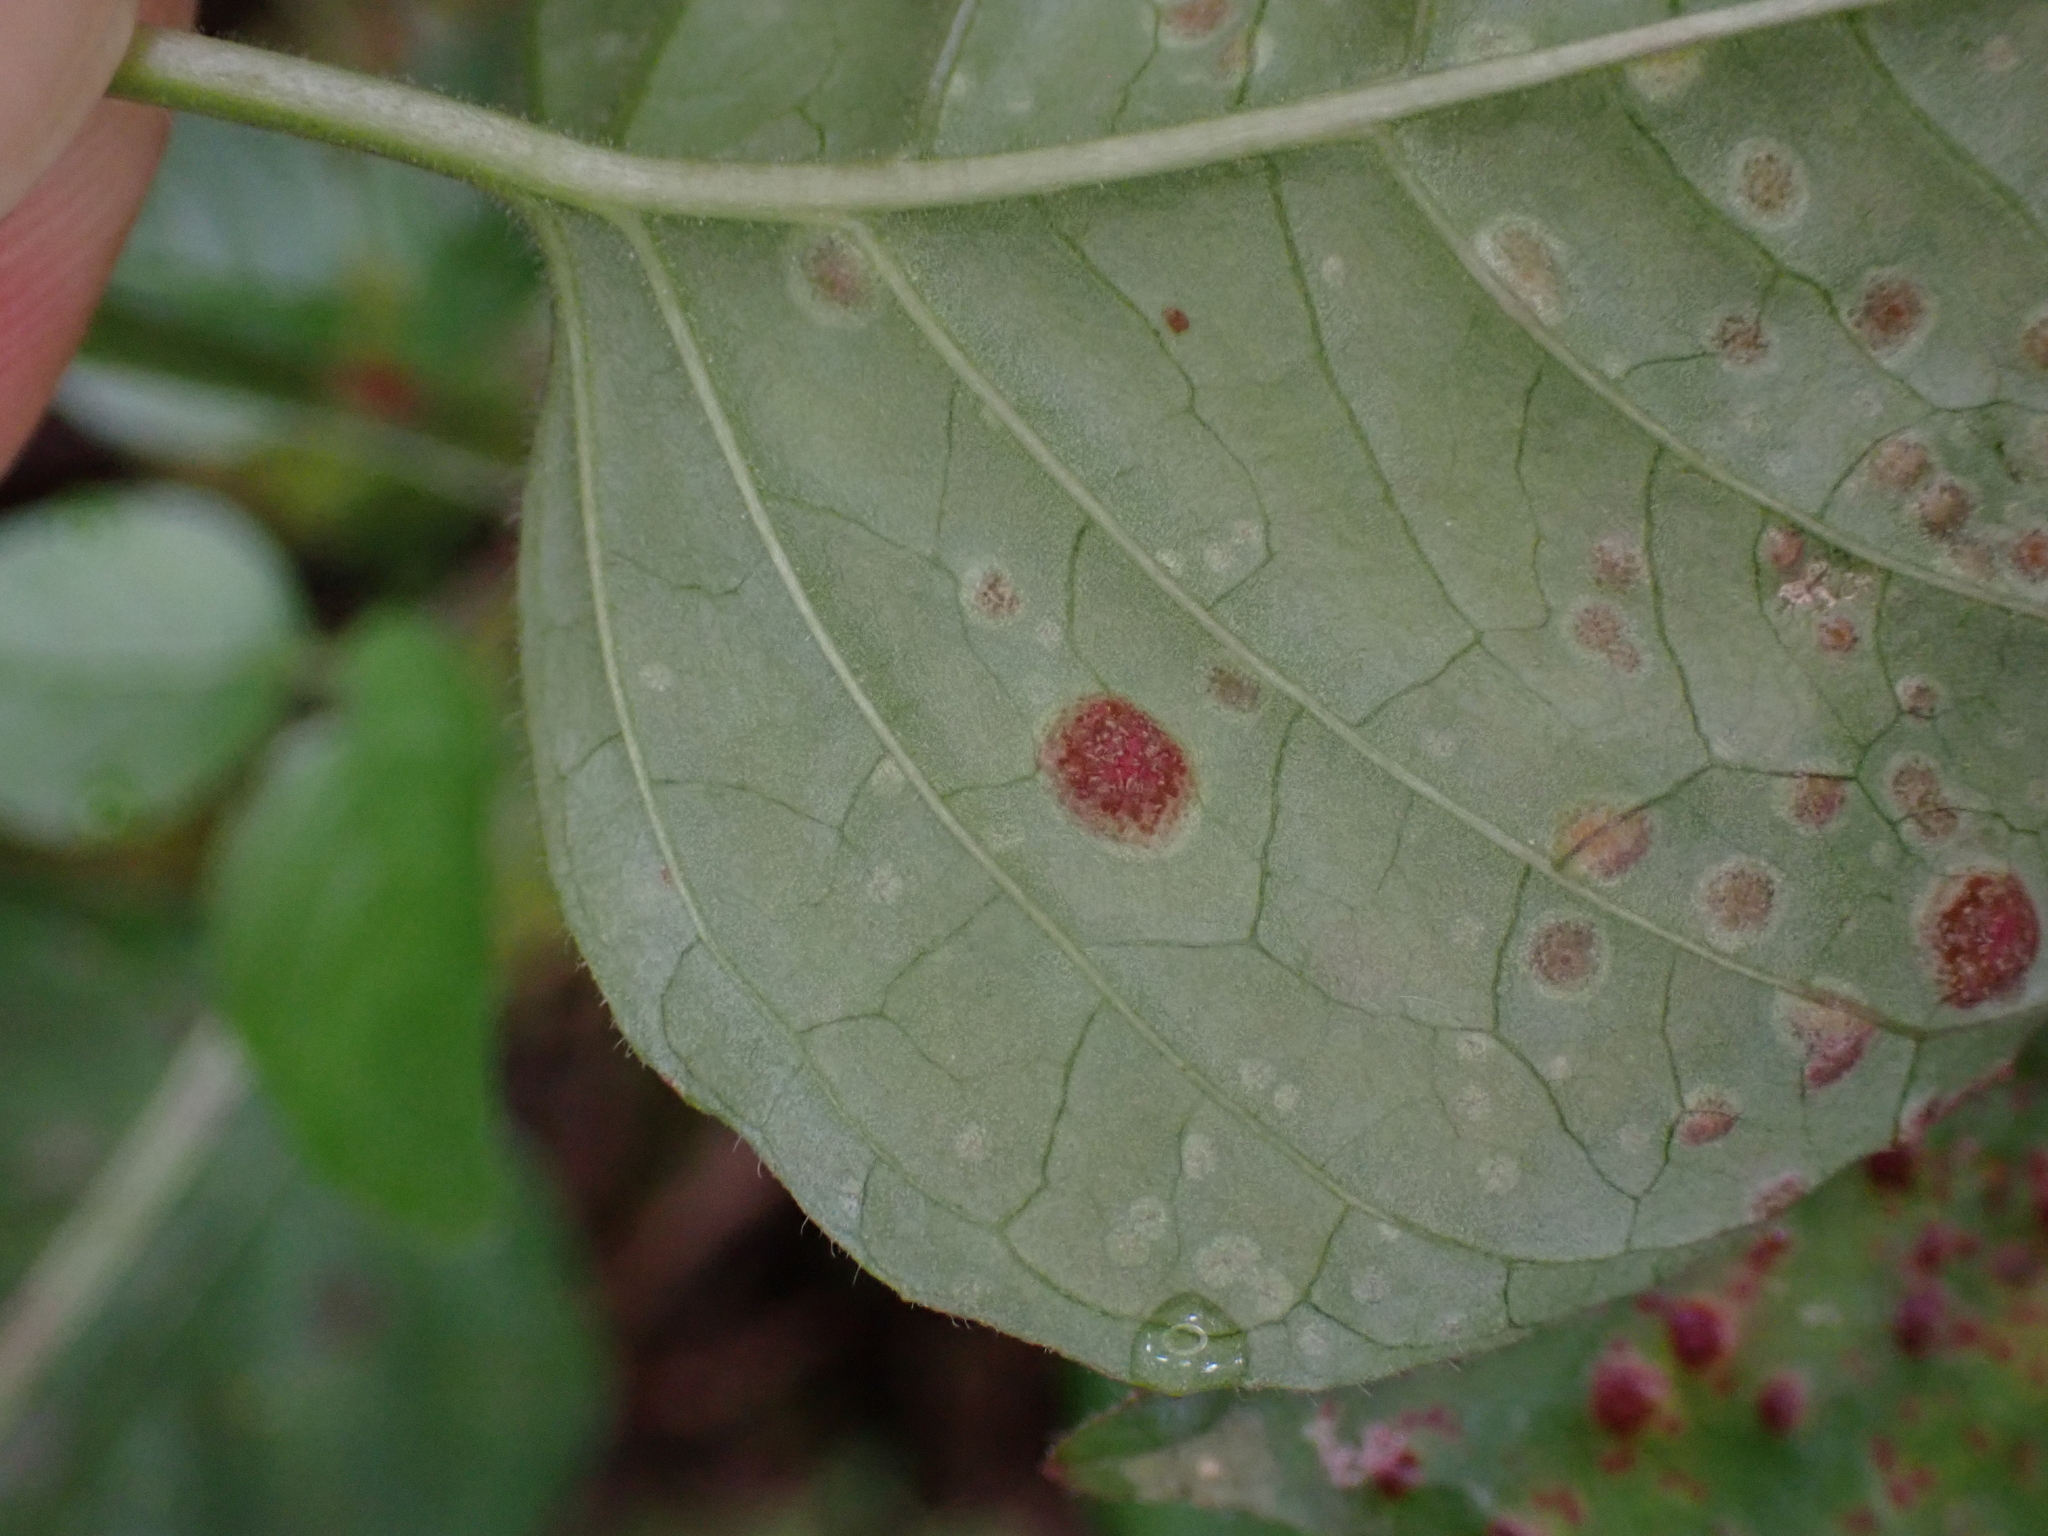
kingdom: Fungi
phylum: Basidiomycota
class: Pucciniomycetes
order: Pucciniales
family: Pucciniaceae
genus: Puccinia
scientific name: Puccinia circaeae
